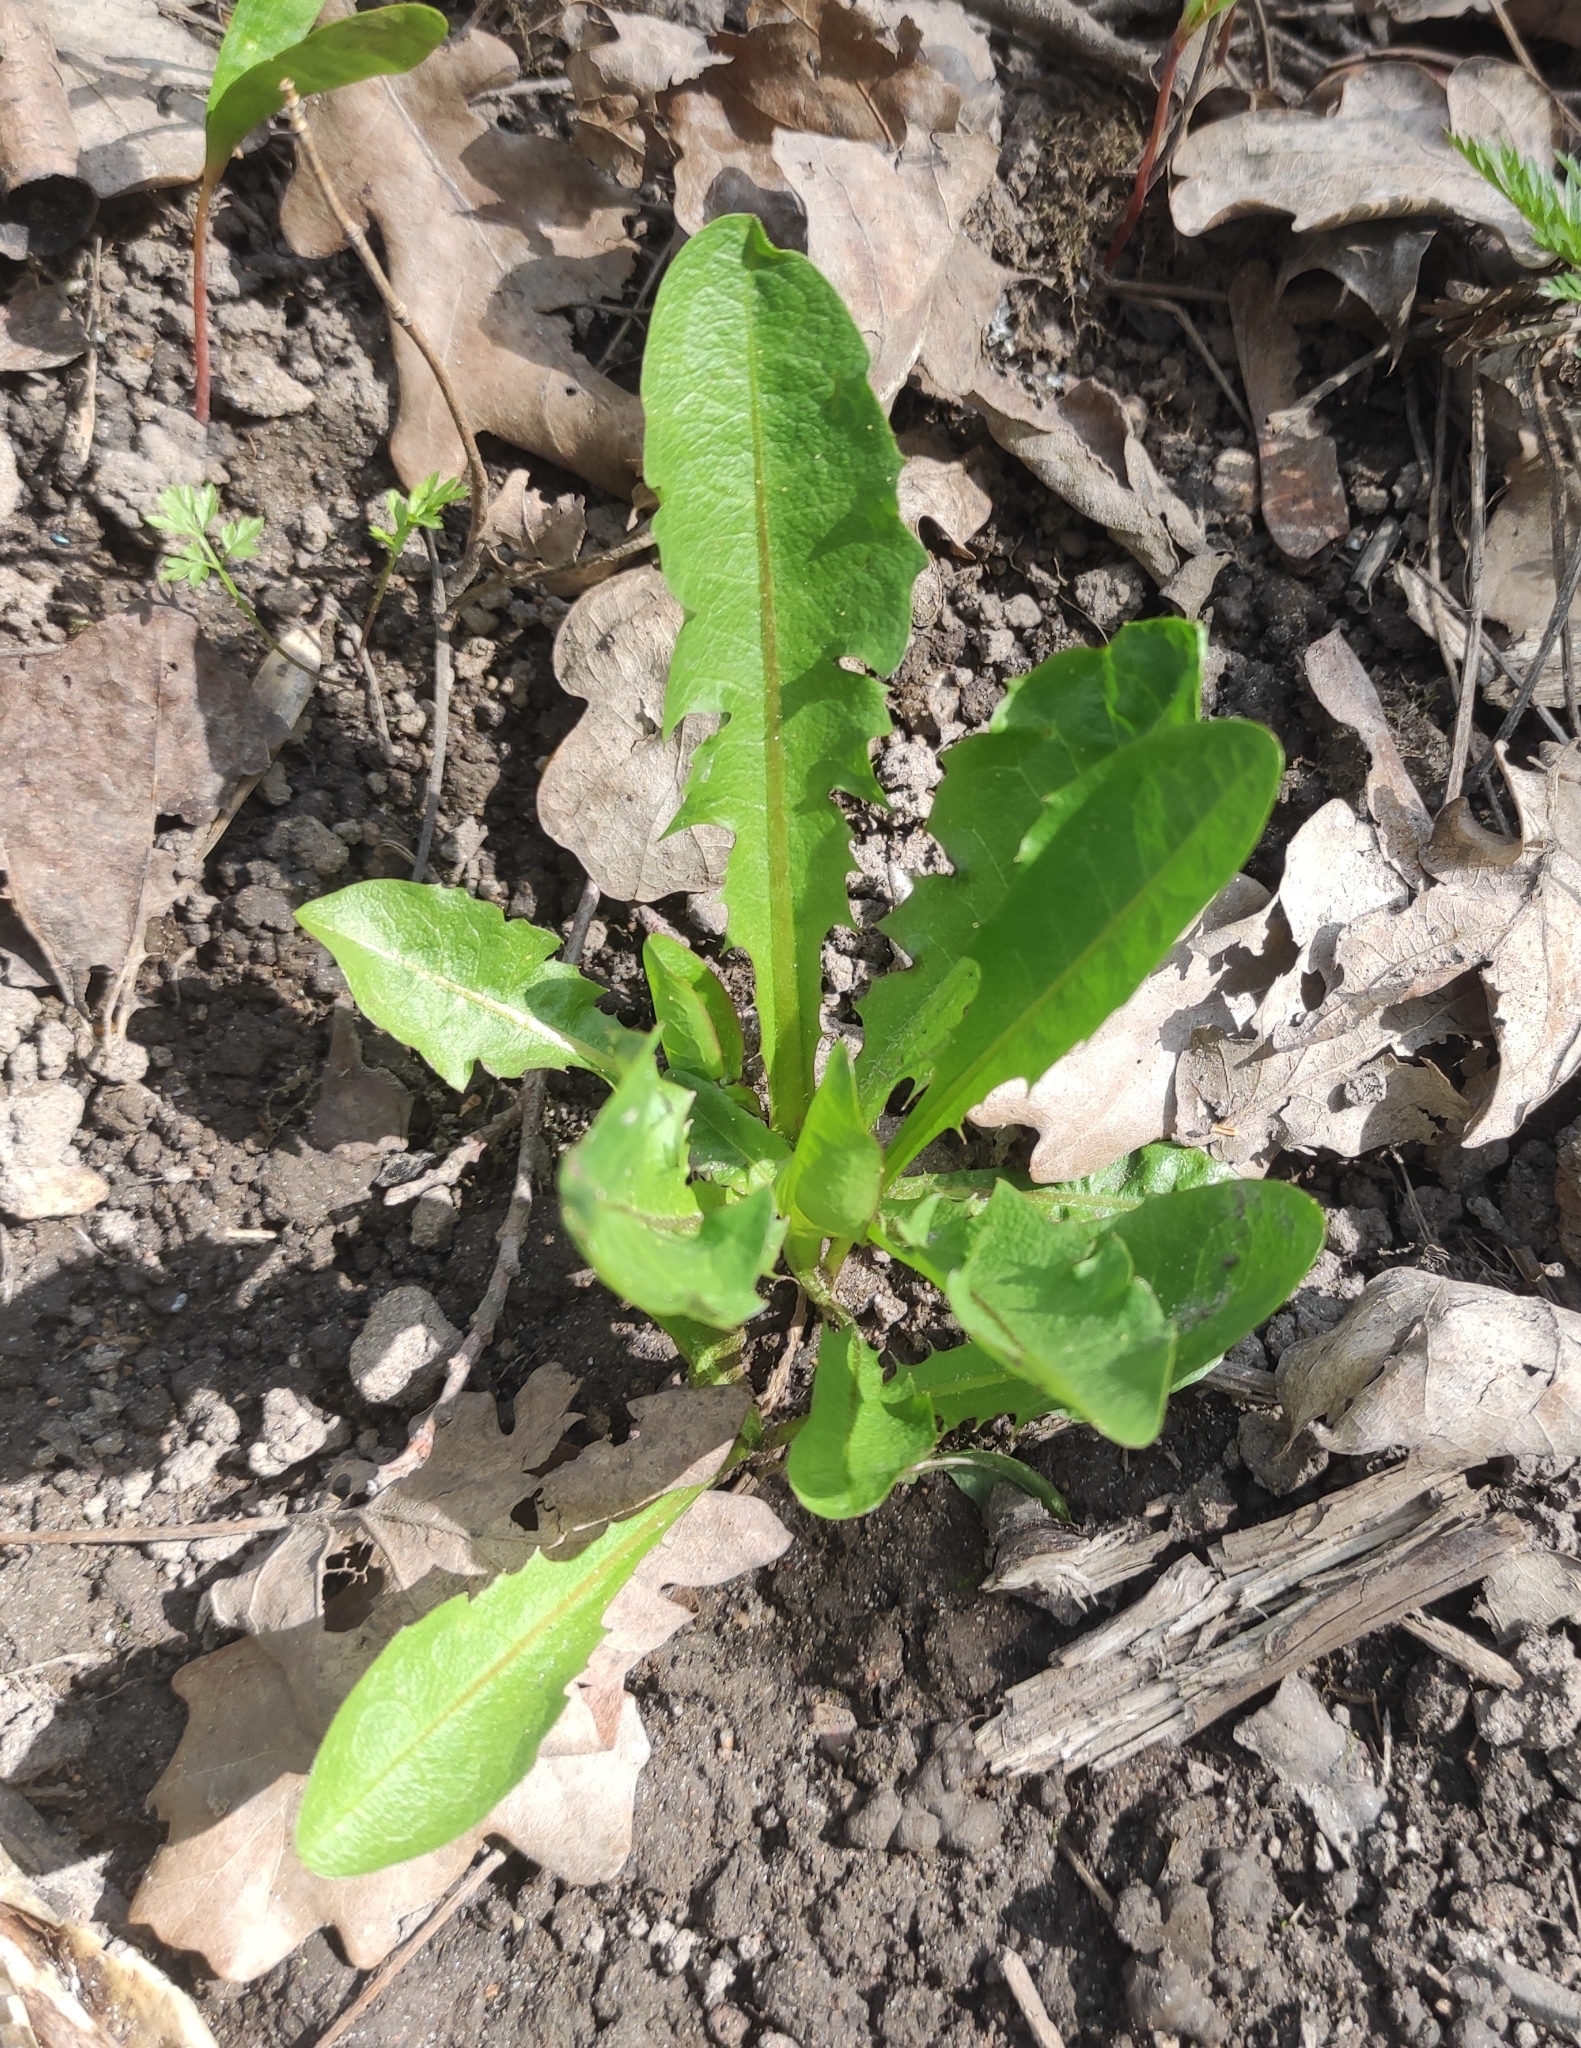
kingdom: Plantae
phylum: Tracheophyta
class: Magnoliopsida
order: Asterales
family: Asteraceae
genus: Taraxacum
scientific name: Taraxacum officinale
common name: Common dandelion
